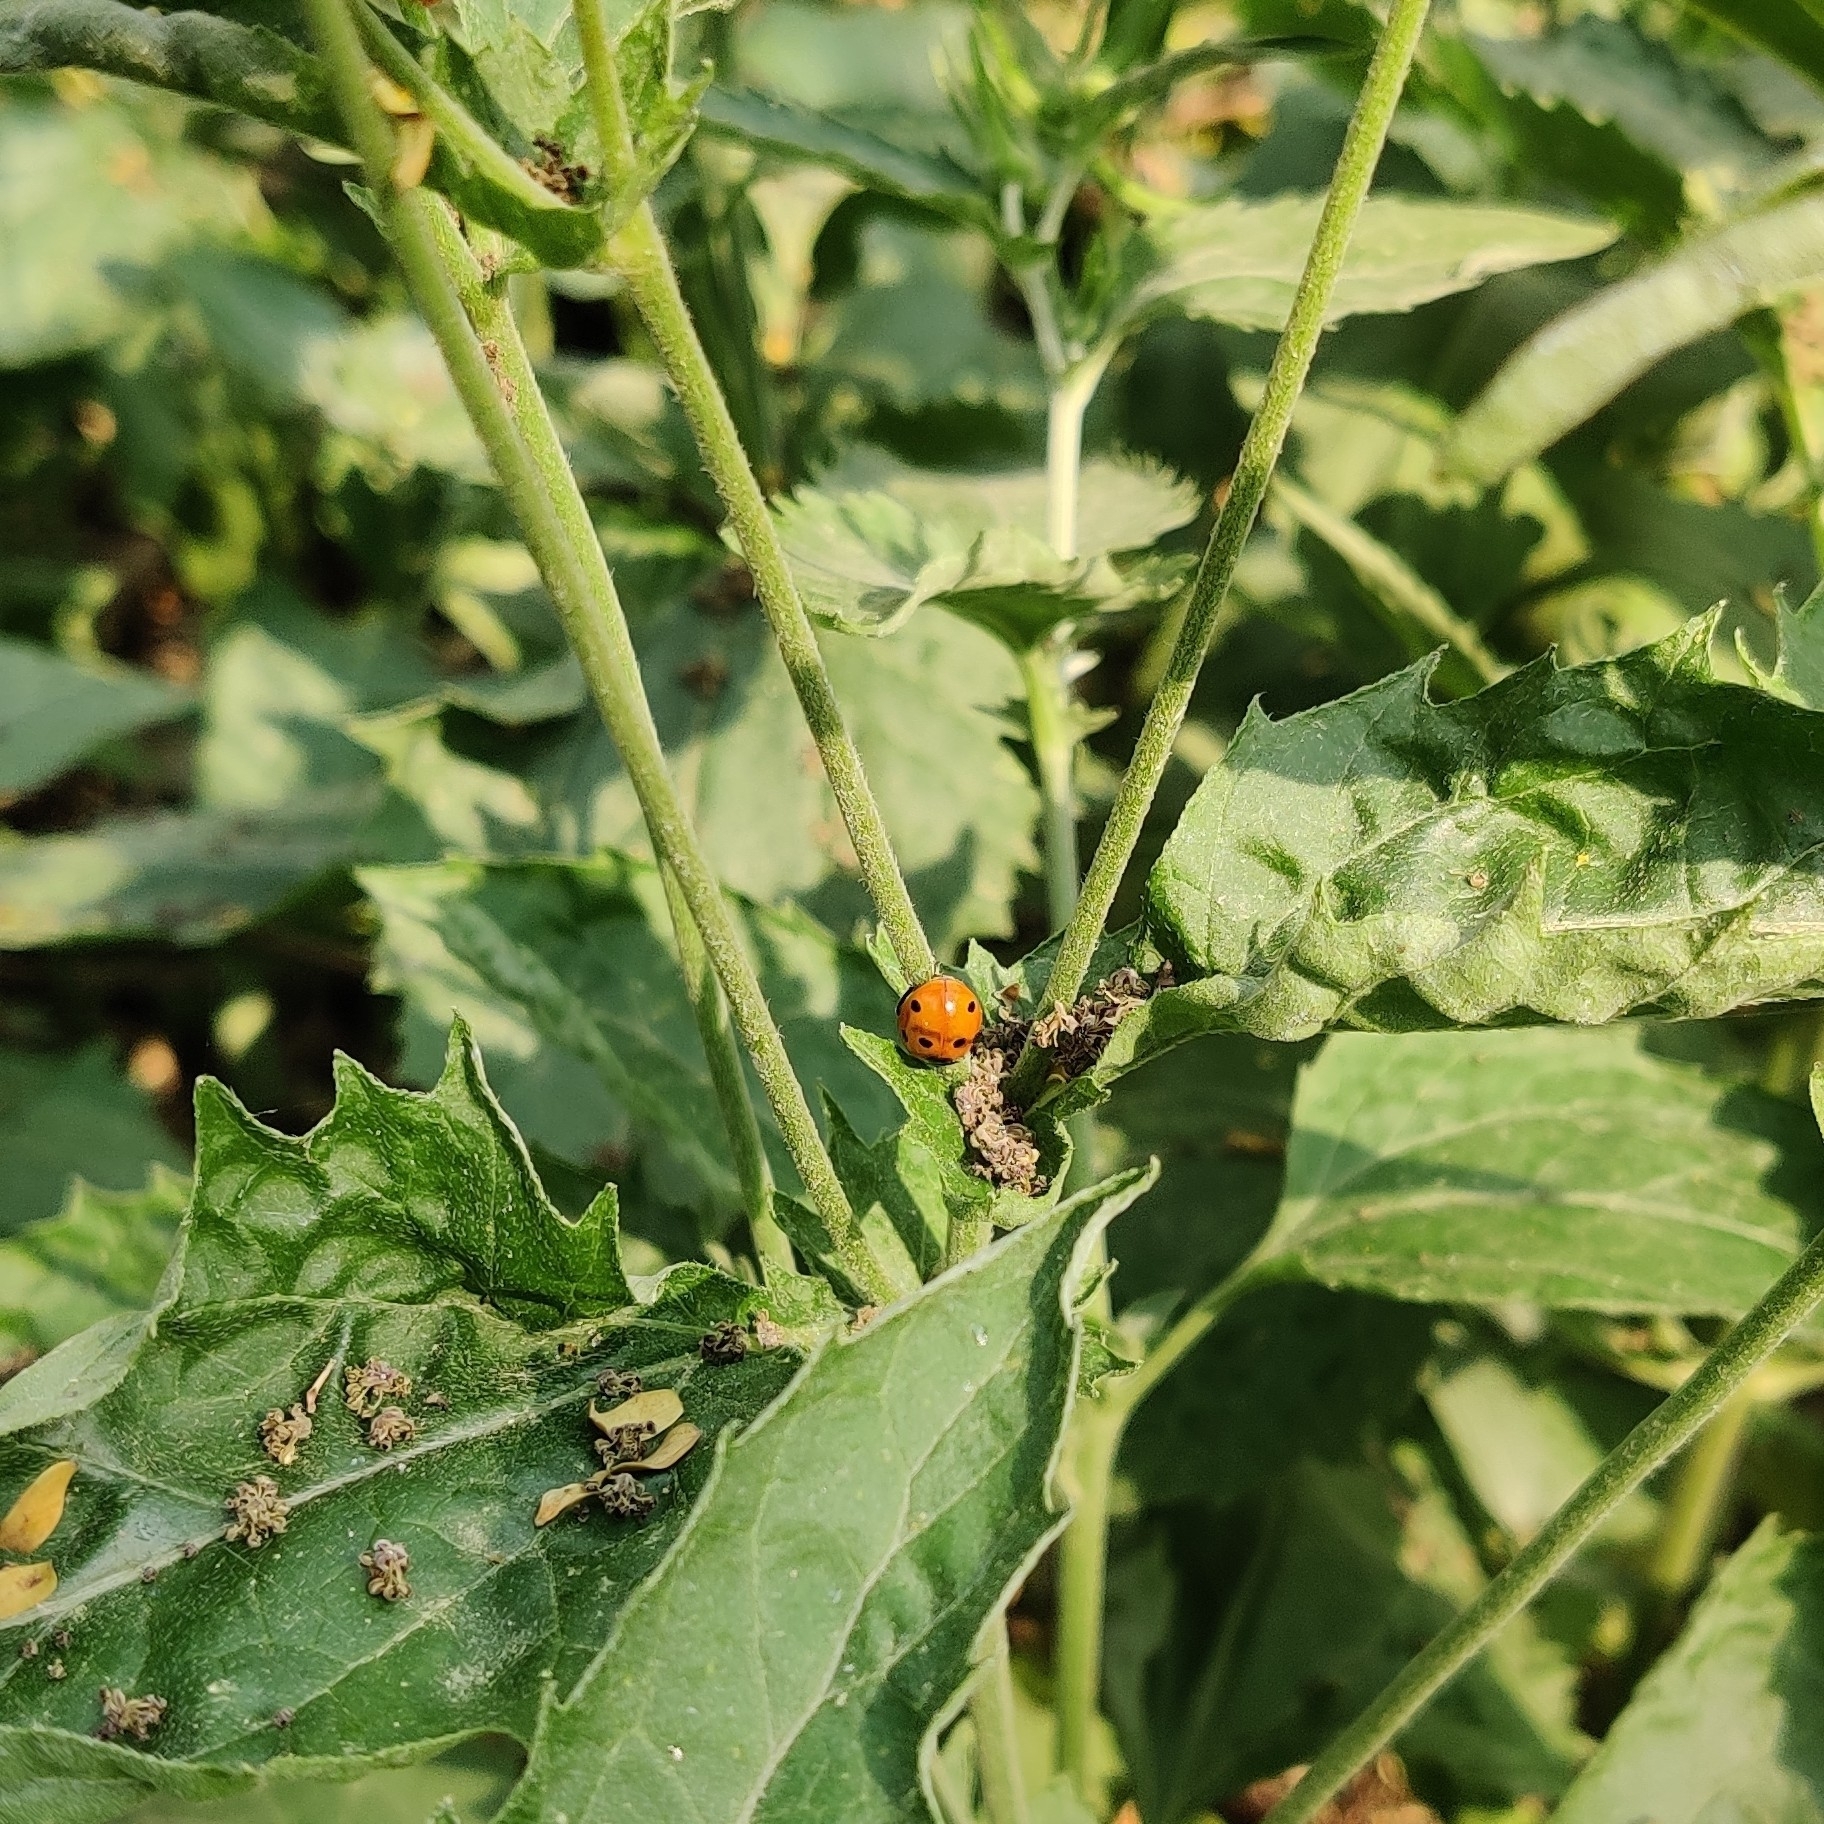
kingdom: Animalia
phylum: Arthropoda
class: Insecta
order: Coleoptera
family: Coccinellidae
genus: Coccinella
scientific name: Coccinella septempunctata
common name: Sevenspotted lady beetle
